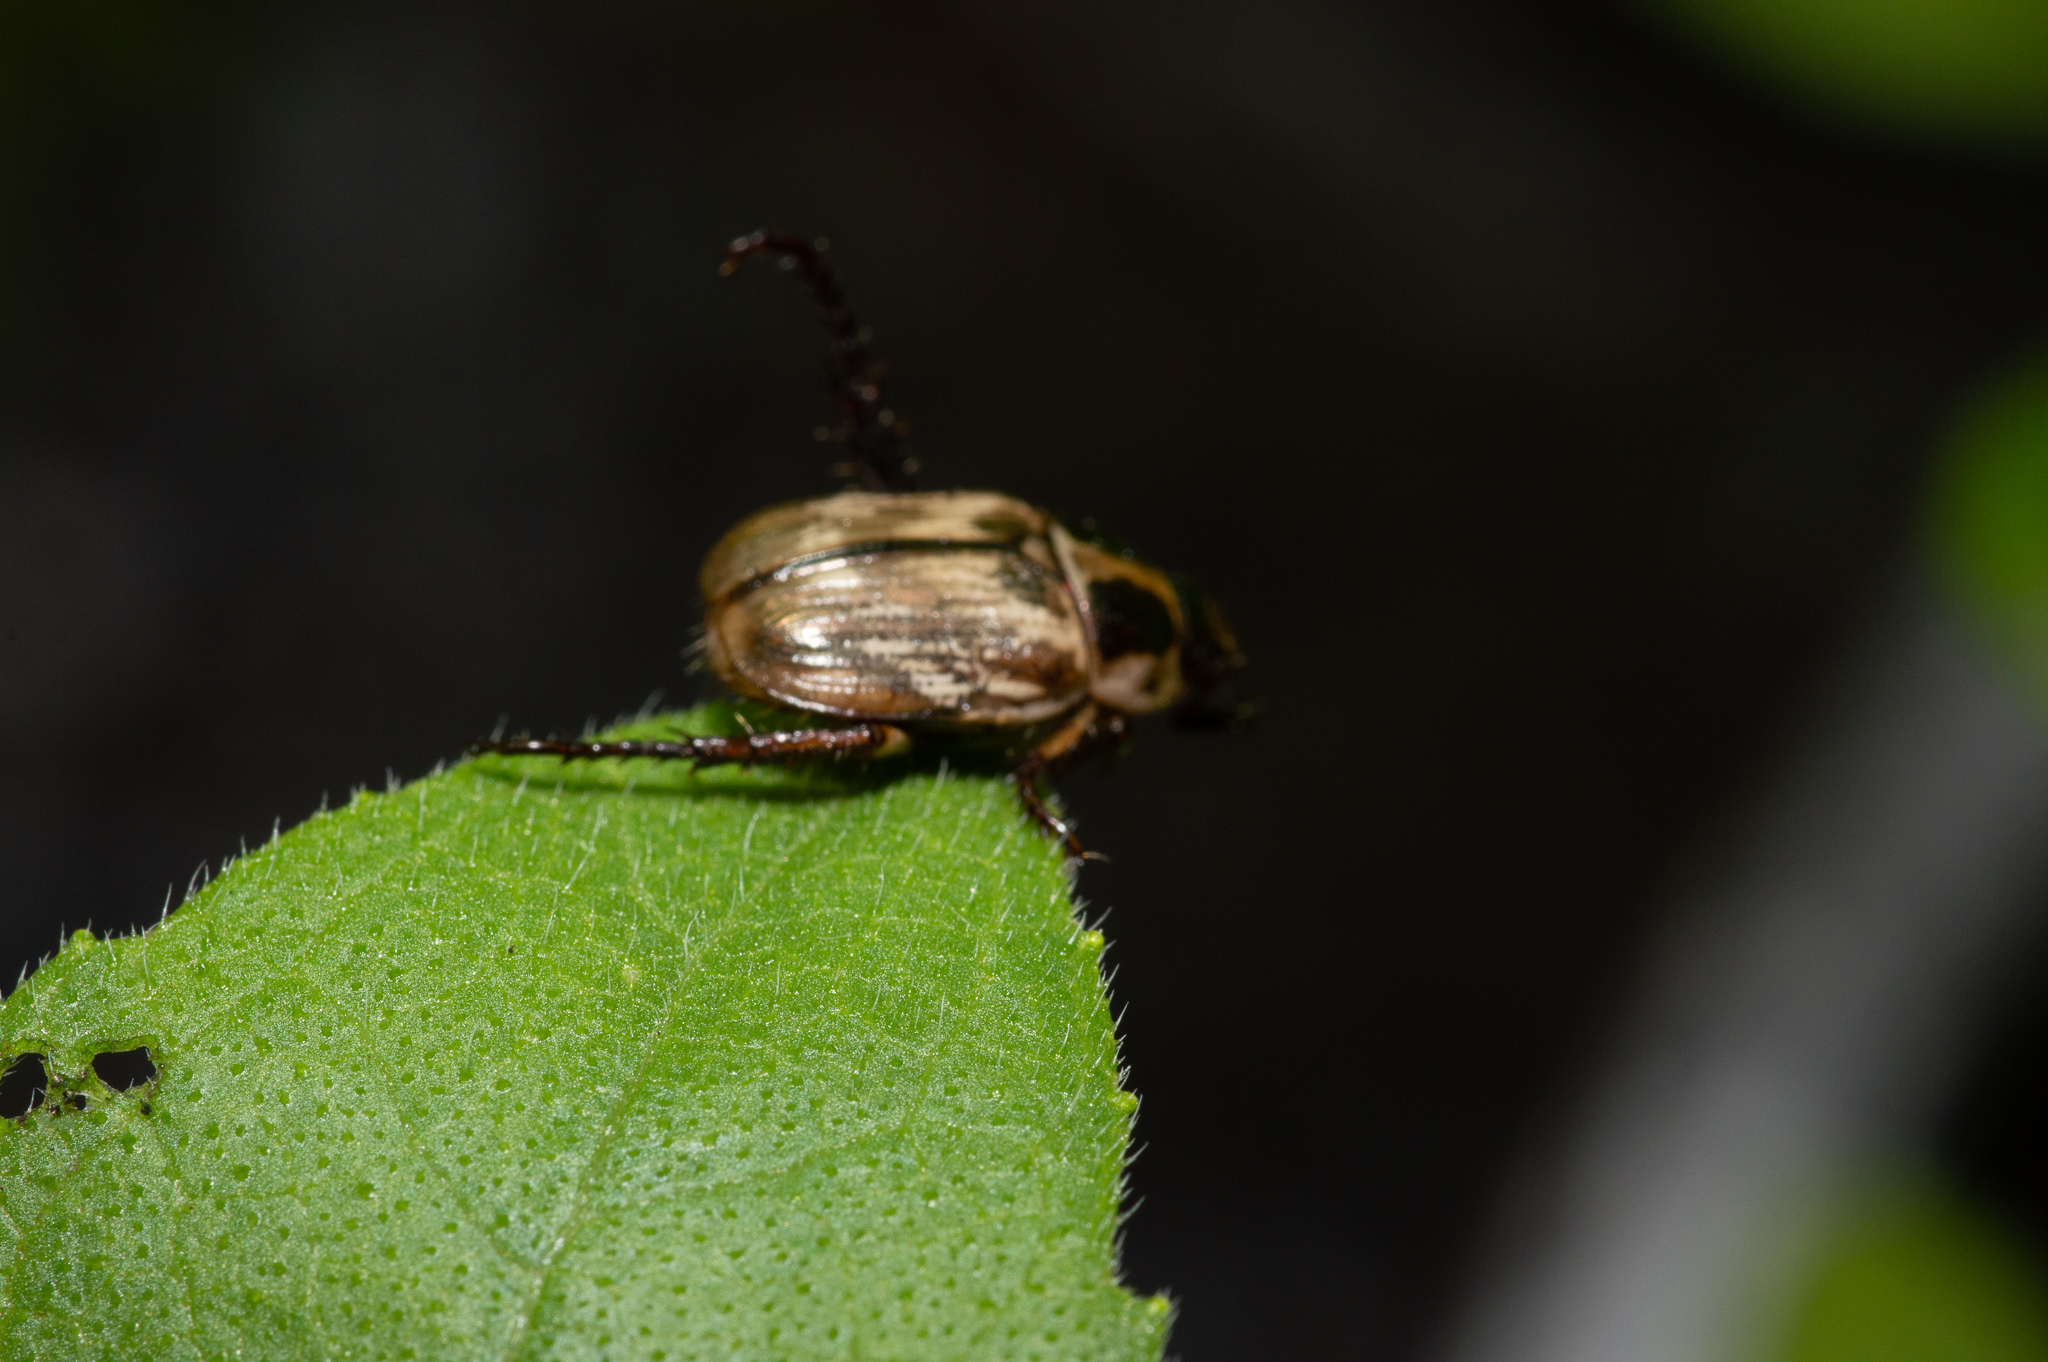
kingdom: Animalia
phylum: Arthropoda
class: Insecta
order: Coleoptera
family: Scarabaeidae
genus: Exomala
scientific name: Exomala orientalis
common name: Oriental beetle
